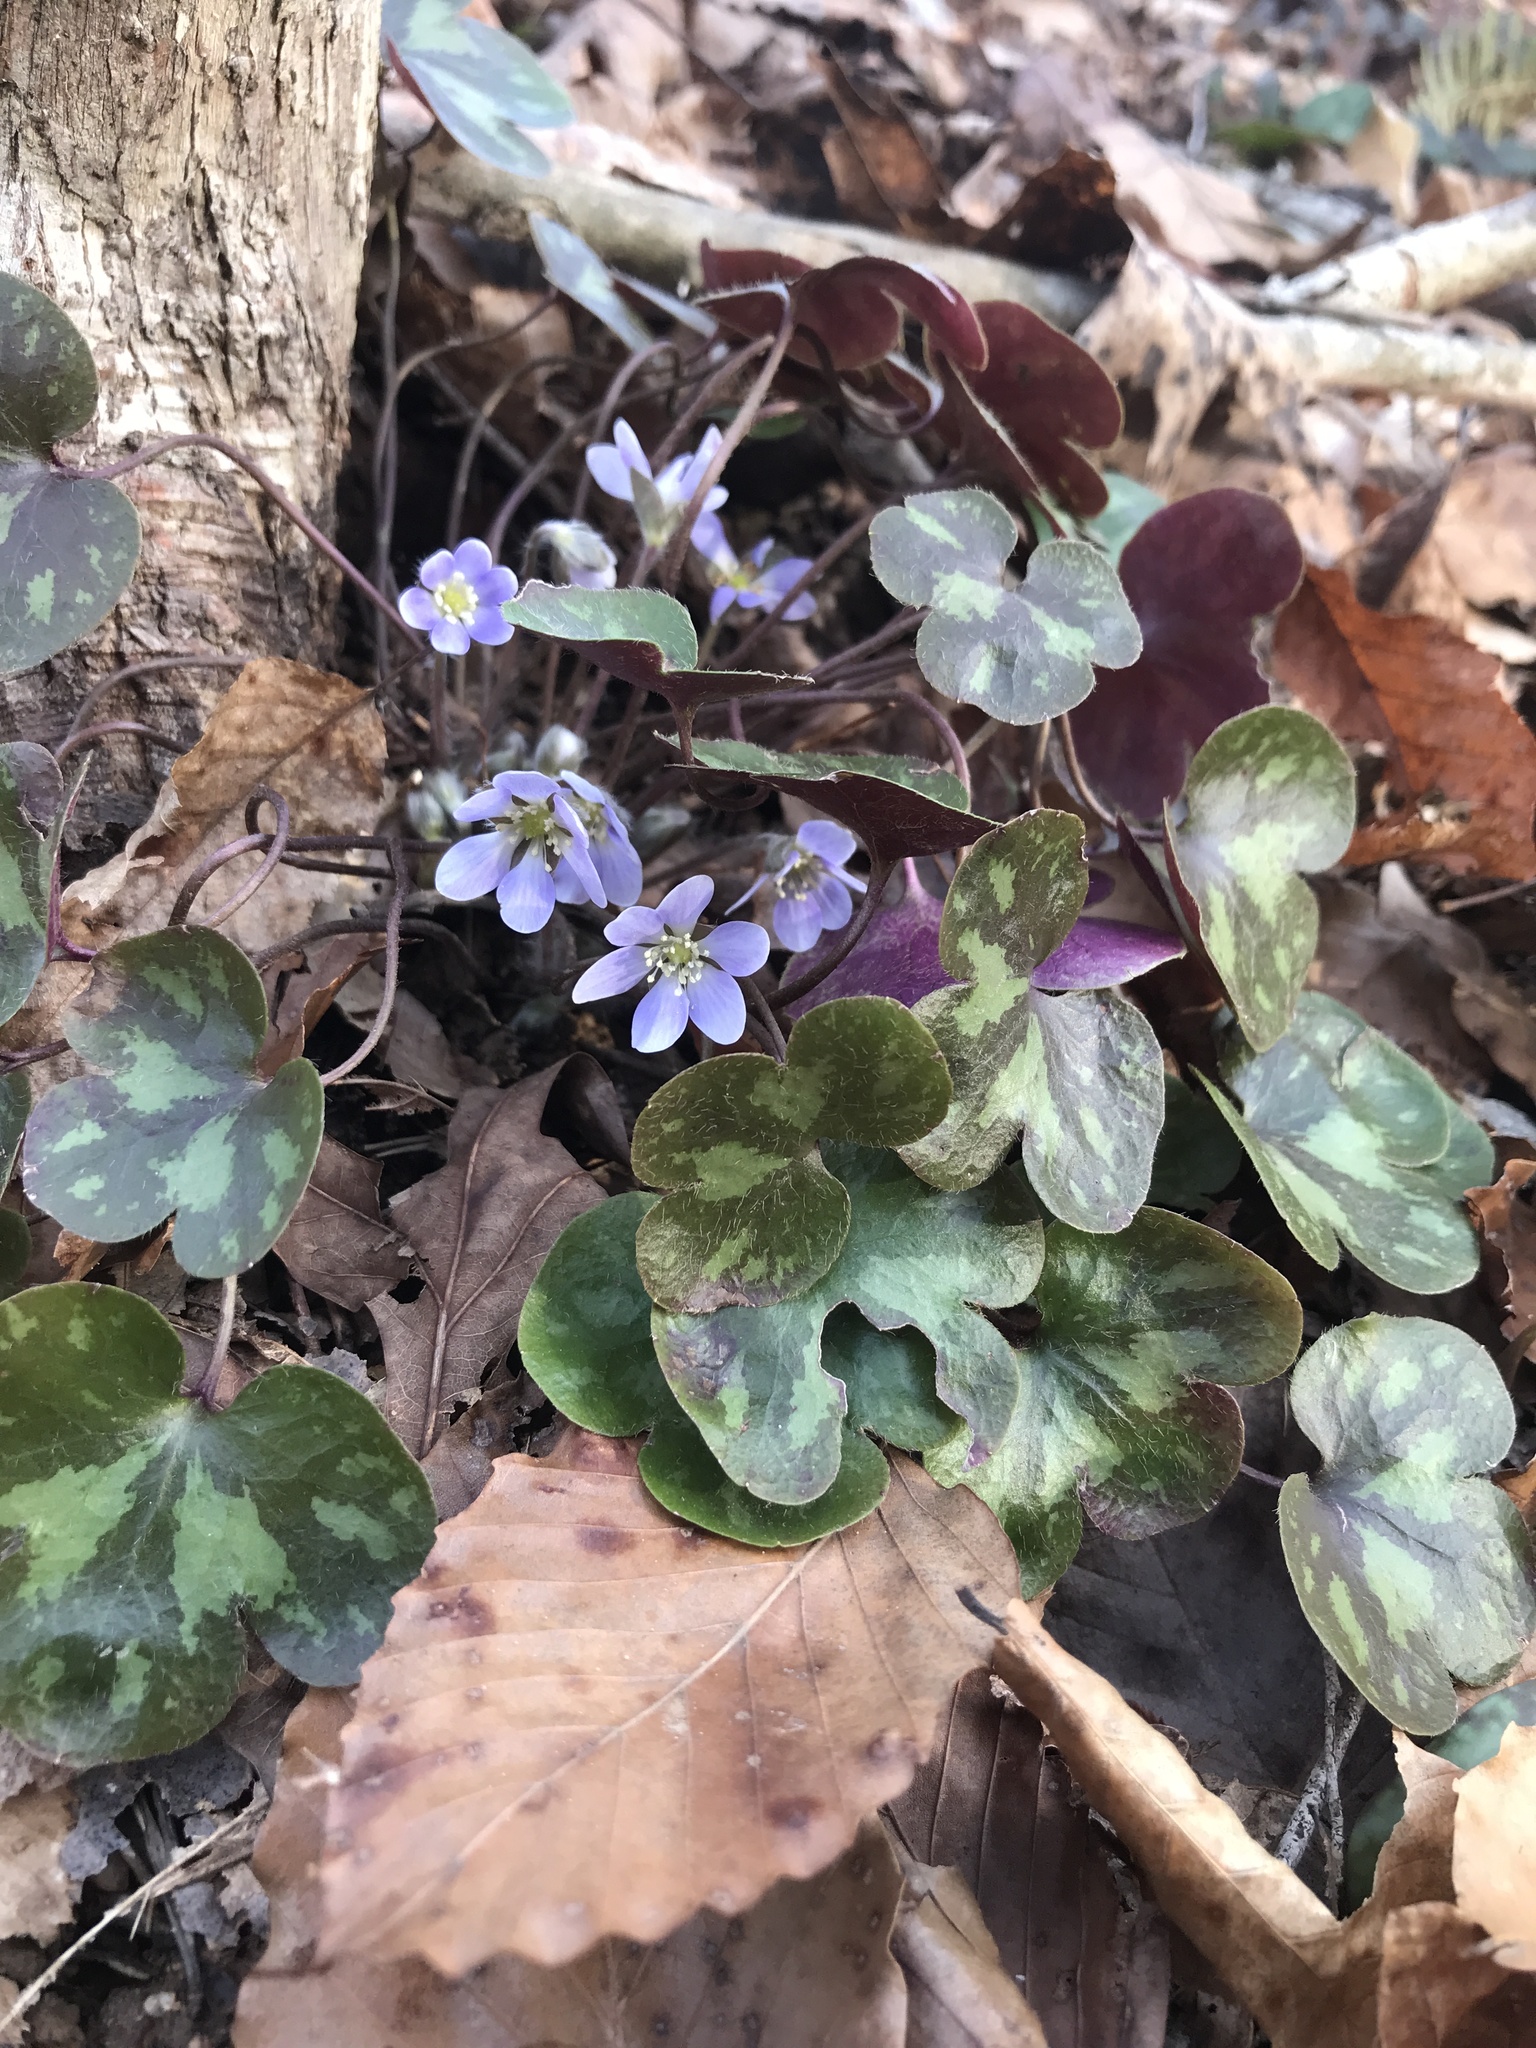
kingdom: Plantae
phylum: Tracheophyta
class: Magnoliopsida
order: Ranunculales
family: Ranunculaceae
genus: Hepatica
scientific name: Hepatica americana
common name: American hepatica
